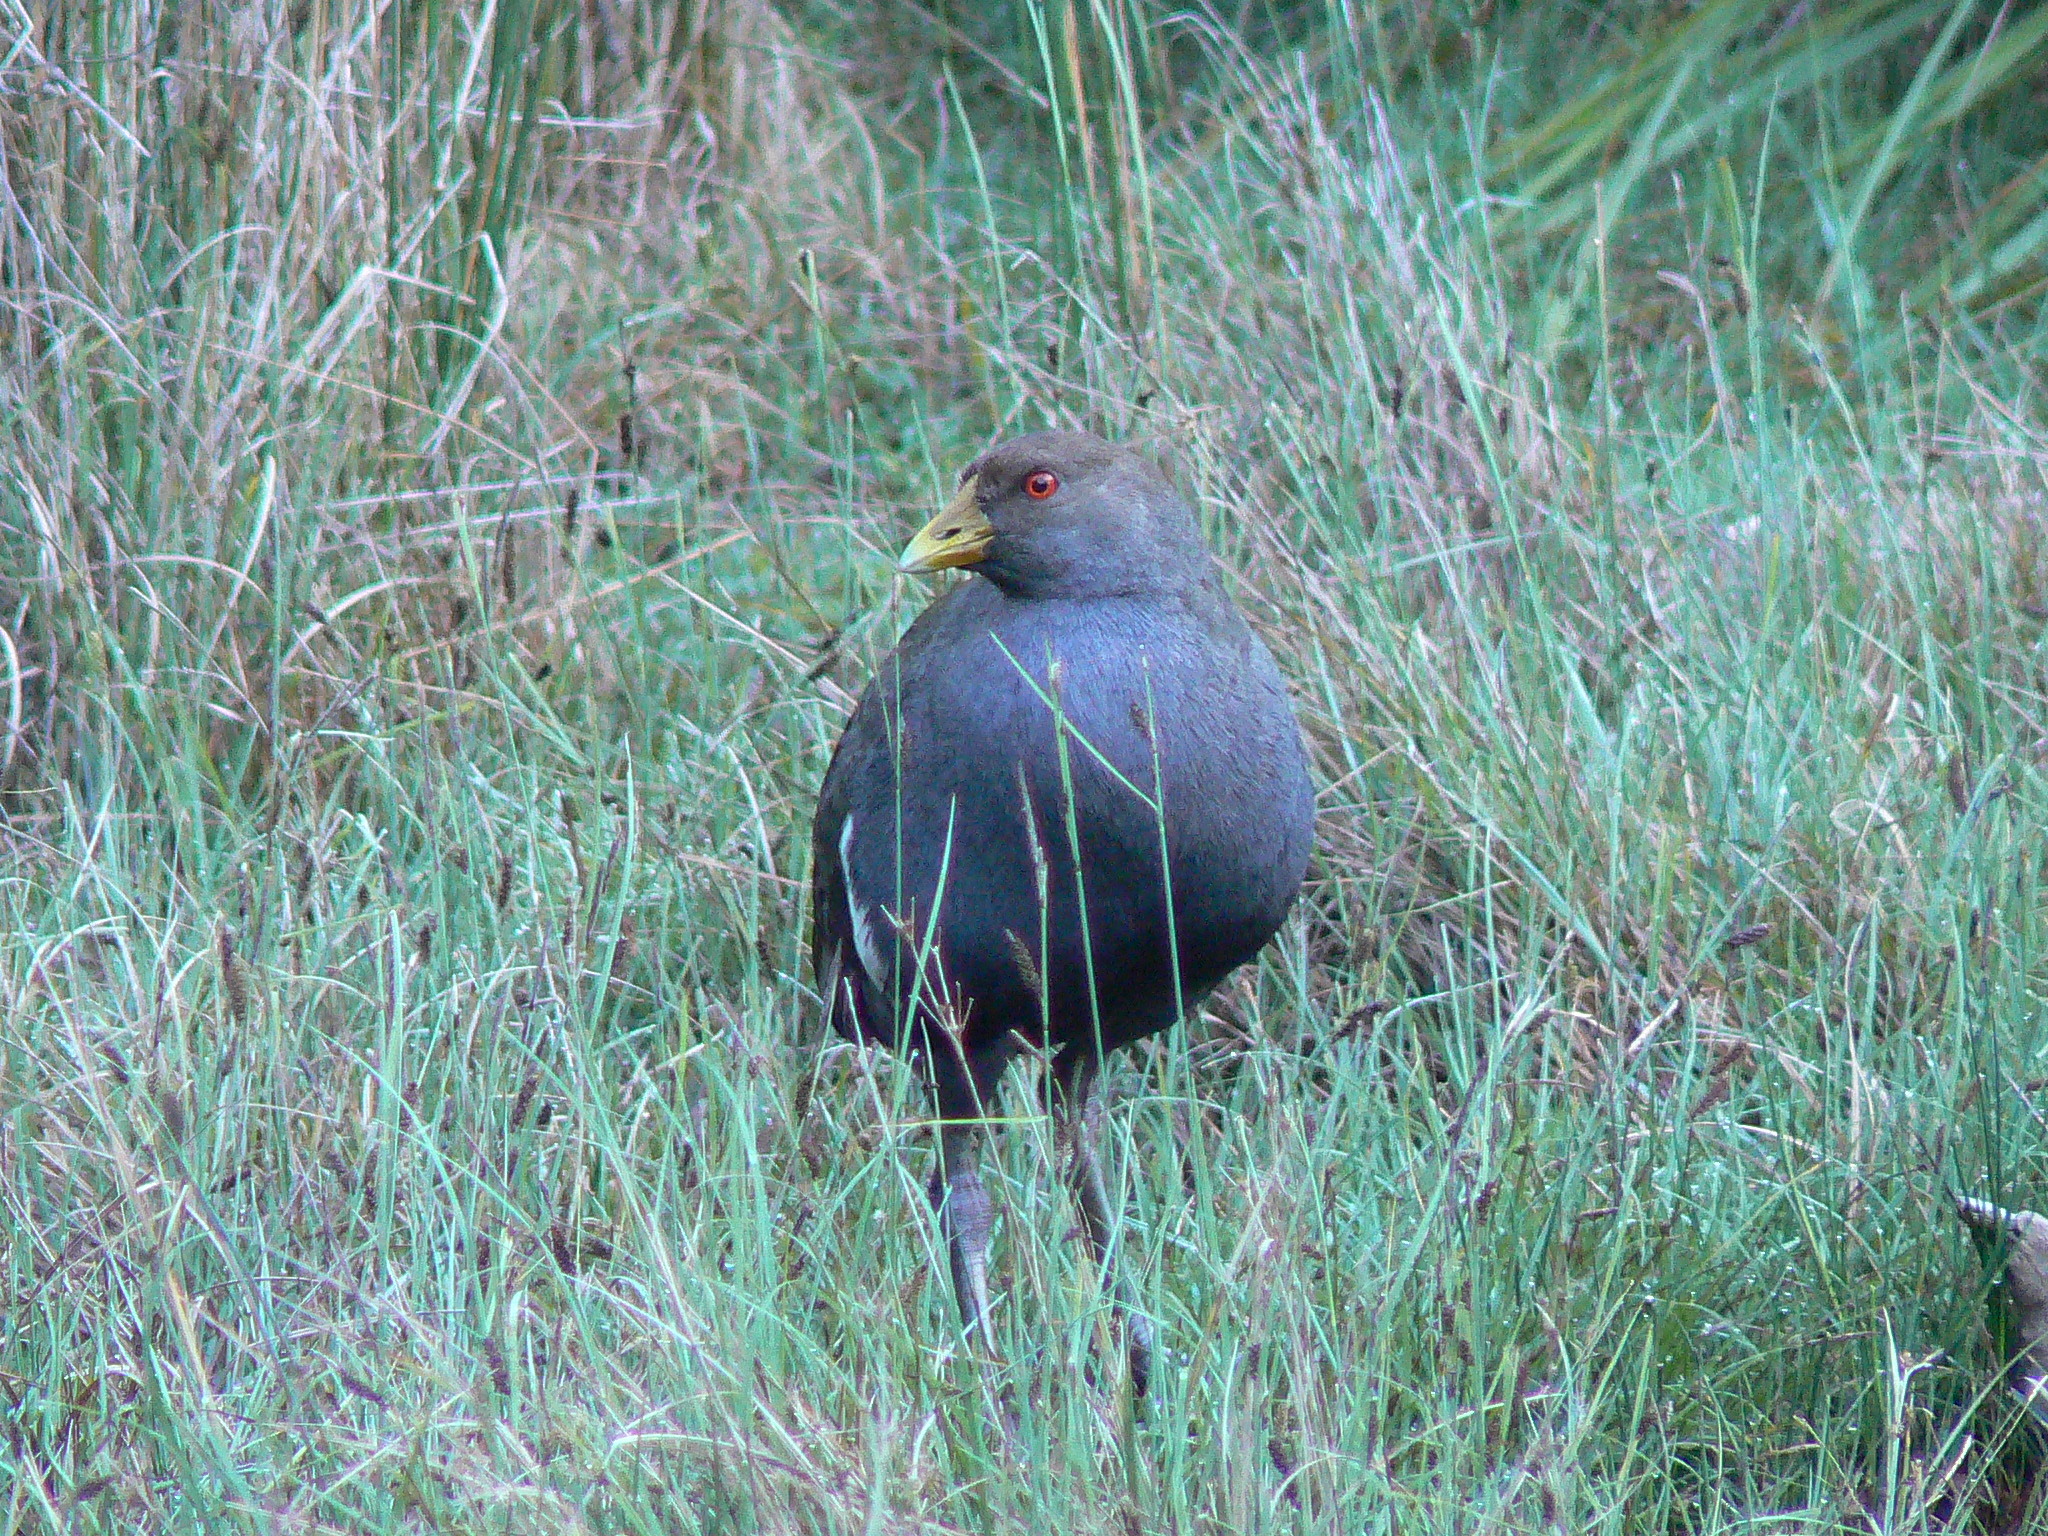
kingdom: Animalia
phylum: Chordata
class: Aves
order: Gruiformes
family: Rallidae
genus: Gallinula
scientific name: Gallinula mortierii
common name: Tasmanian nativehen
